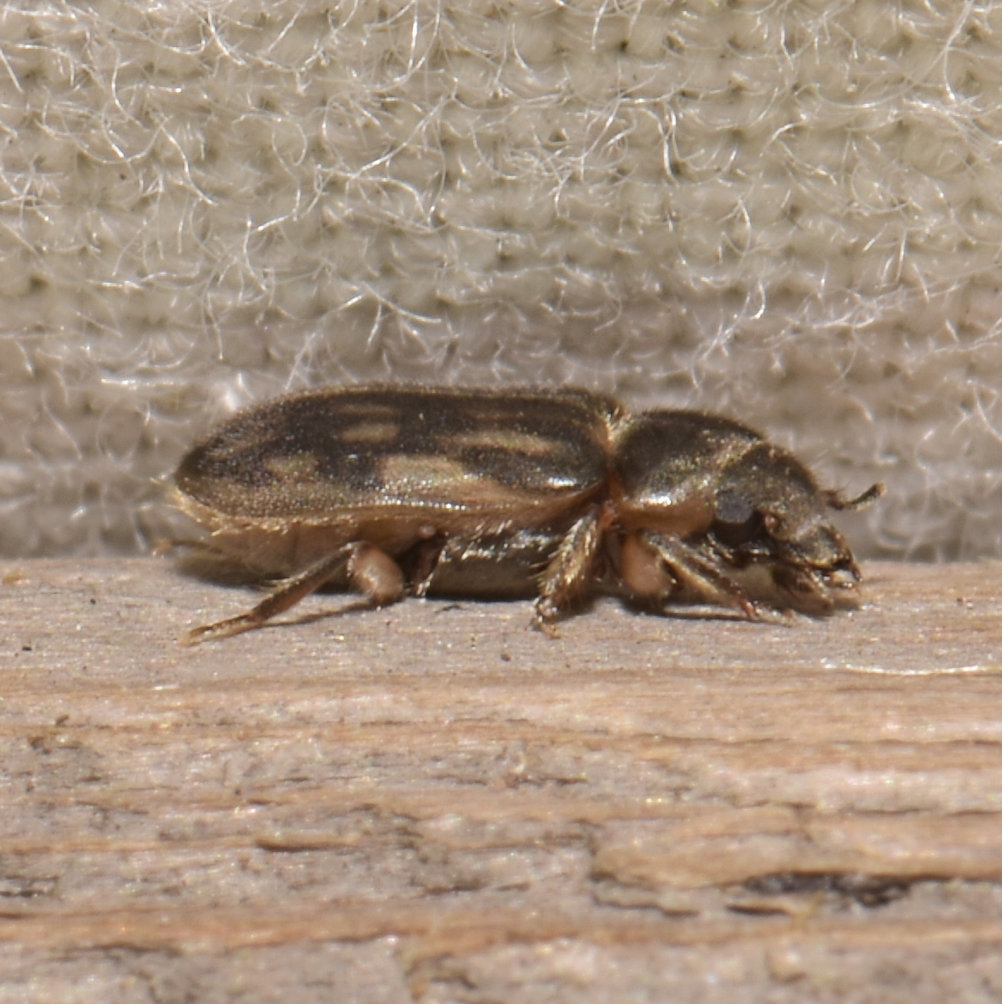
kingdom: Animalia
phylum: Arthropoda
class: Insecta
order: Coleoptera
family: Heteroceridae
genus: Heterocerus
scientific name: Heterocerus fenestratus
